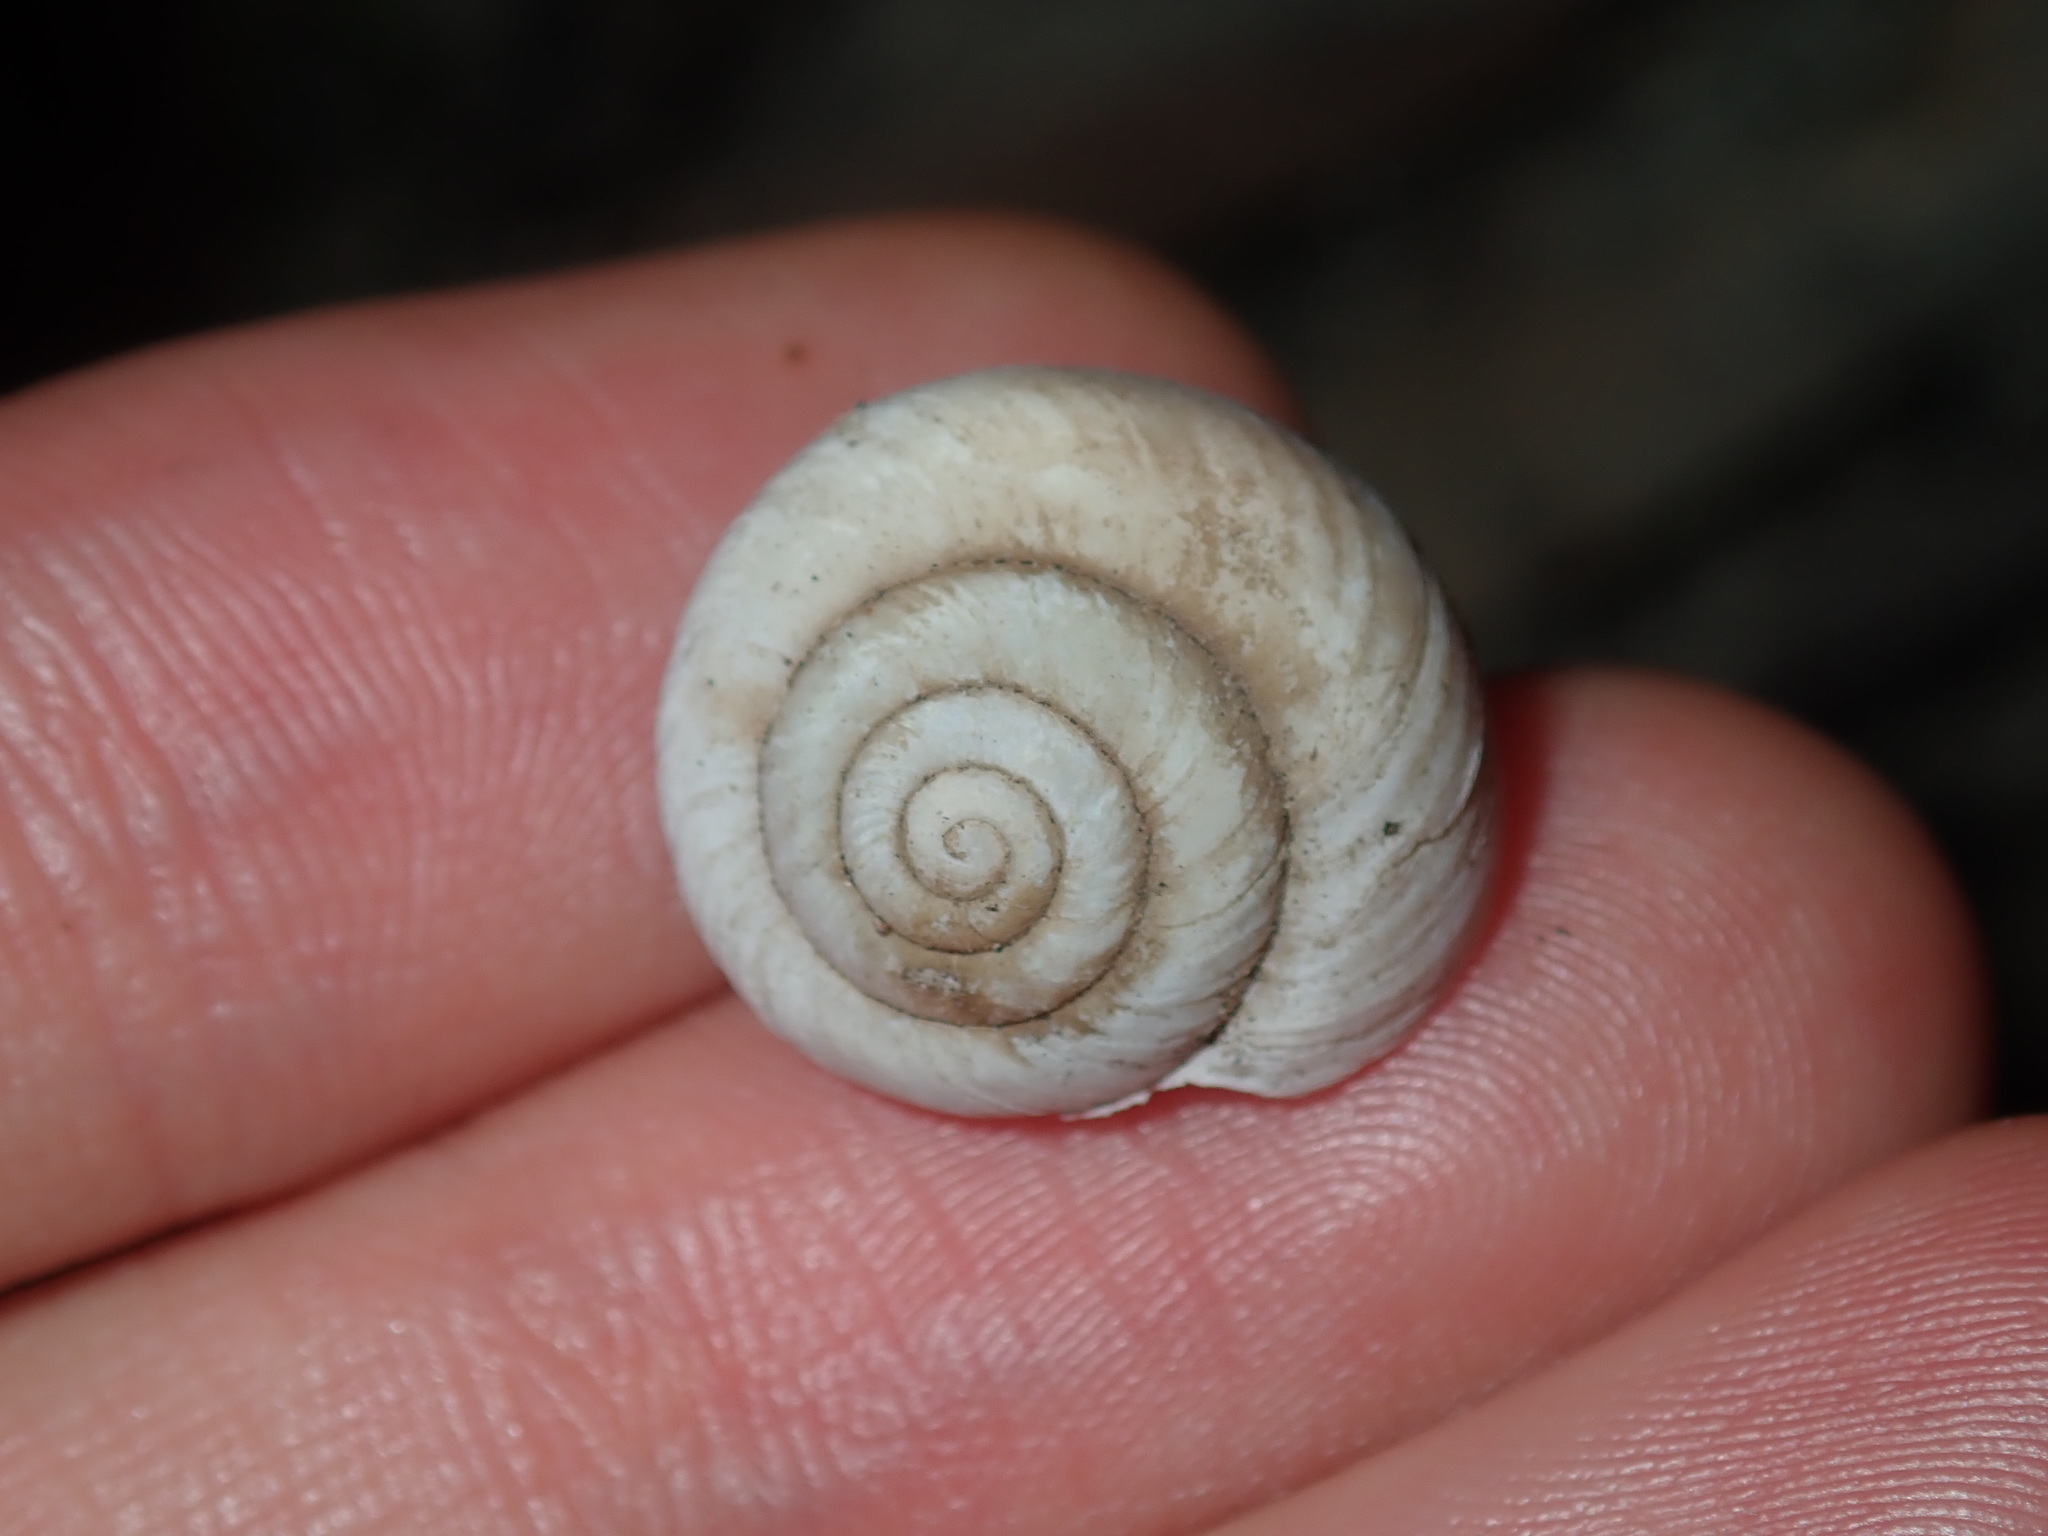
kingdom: Animalia
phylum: Mollusca
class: Gastropoda
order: Stylommatophora
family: Camaenidae
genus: Sauroconcha
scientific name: Sauroconcha sheai
